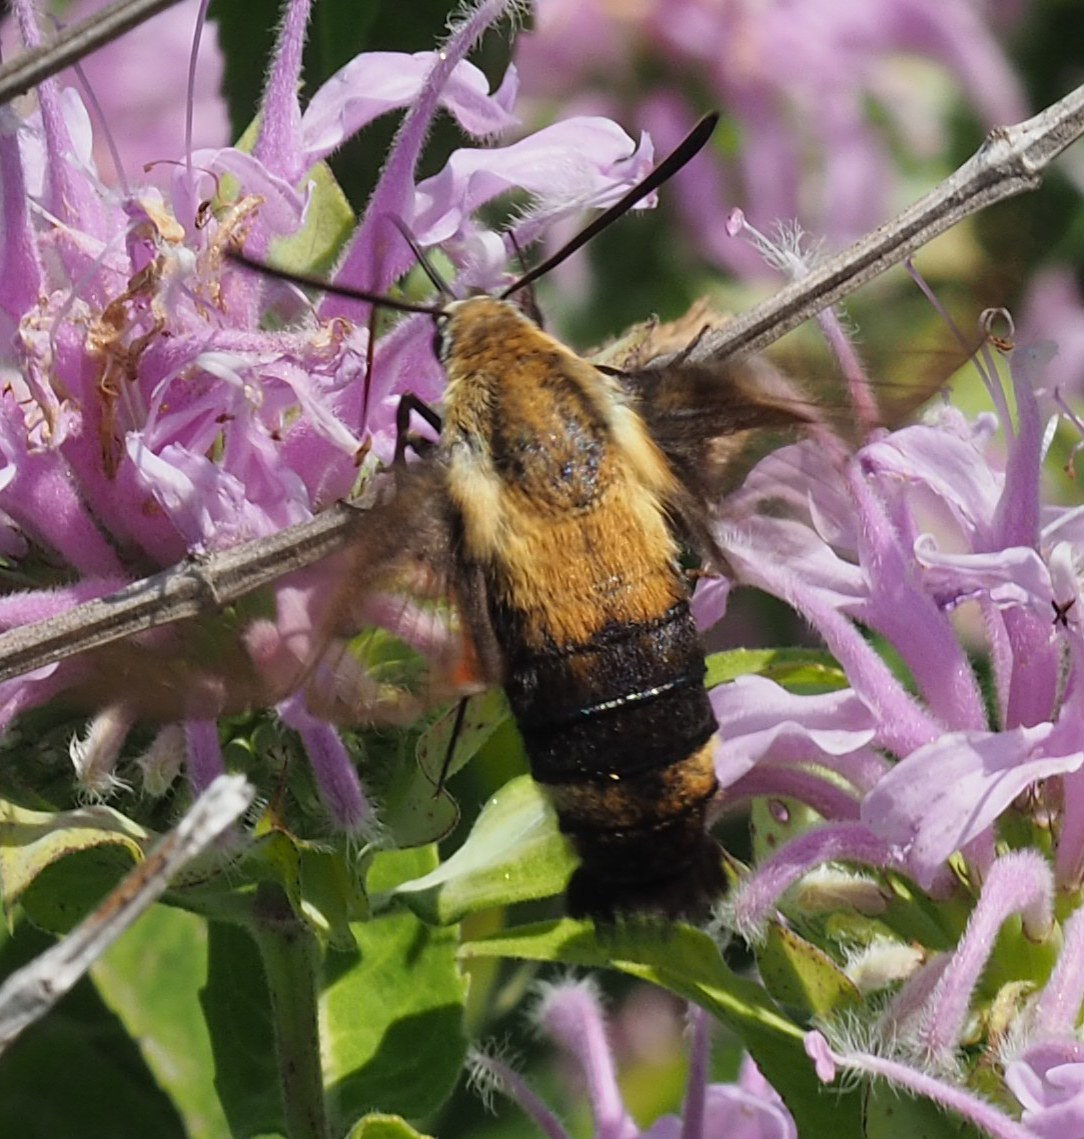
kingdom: Animalia
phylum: Arthropoda
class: Insecta
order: Lepidoptera
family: Sphingidae
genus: Hemaris
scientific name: Hemaris diffinis
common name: Bumblebee moth
